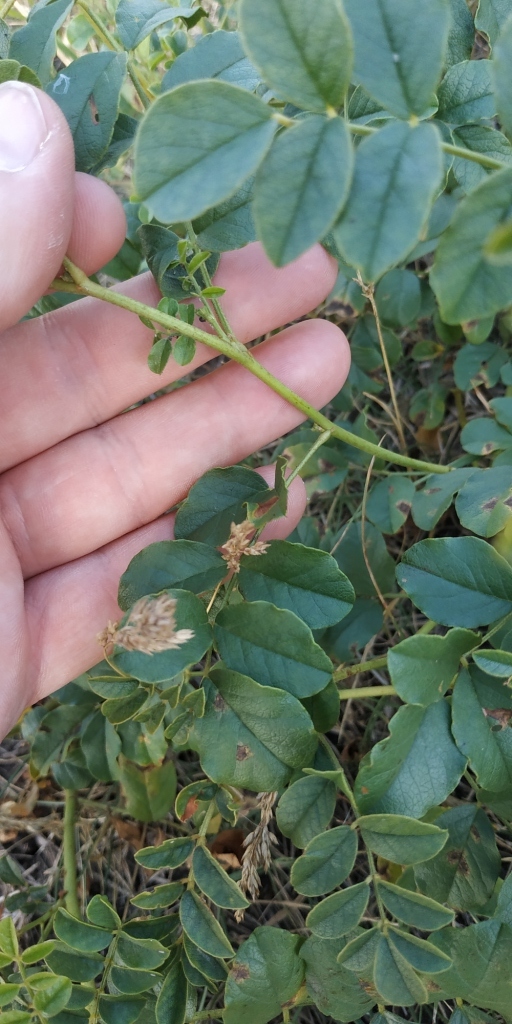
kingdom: Plantae
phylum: Tracheophyta
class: Magnoliopsida
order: Fabales
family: Fabaceae
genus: Glycyrrhiza
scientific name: Glycyrrhiza uralensis
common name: Chinese licorice
